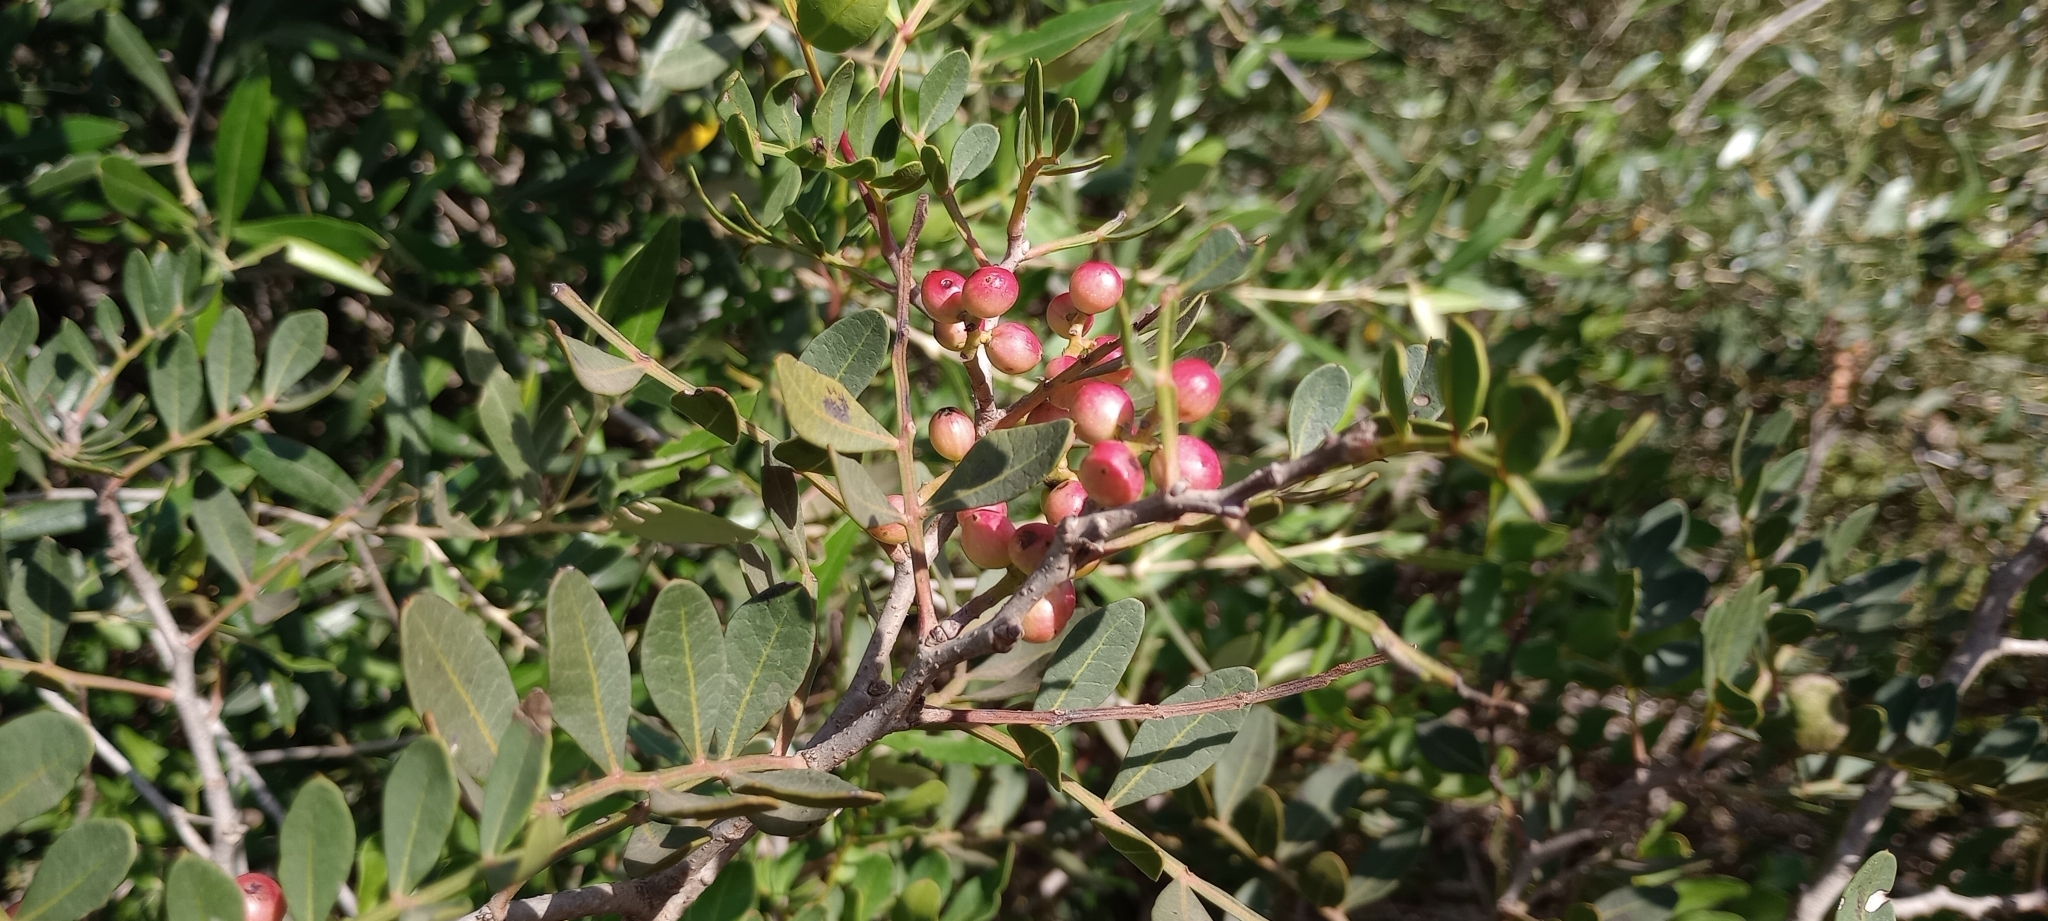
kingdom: Plantae
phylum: Tracheophyta
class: Magnoliopsida
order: Sapindales
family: Anacardiaceae
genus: Pistacia
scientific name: Pistacia lentiscus
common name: Lentisk
